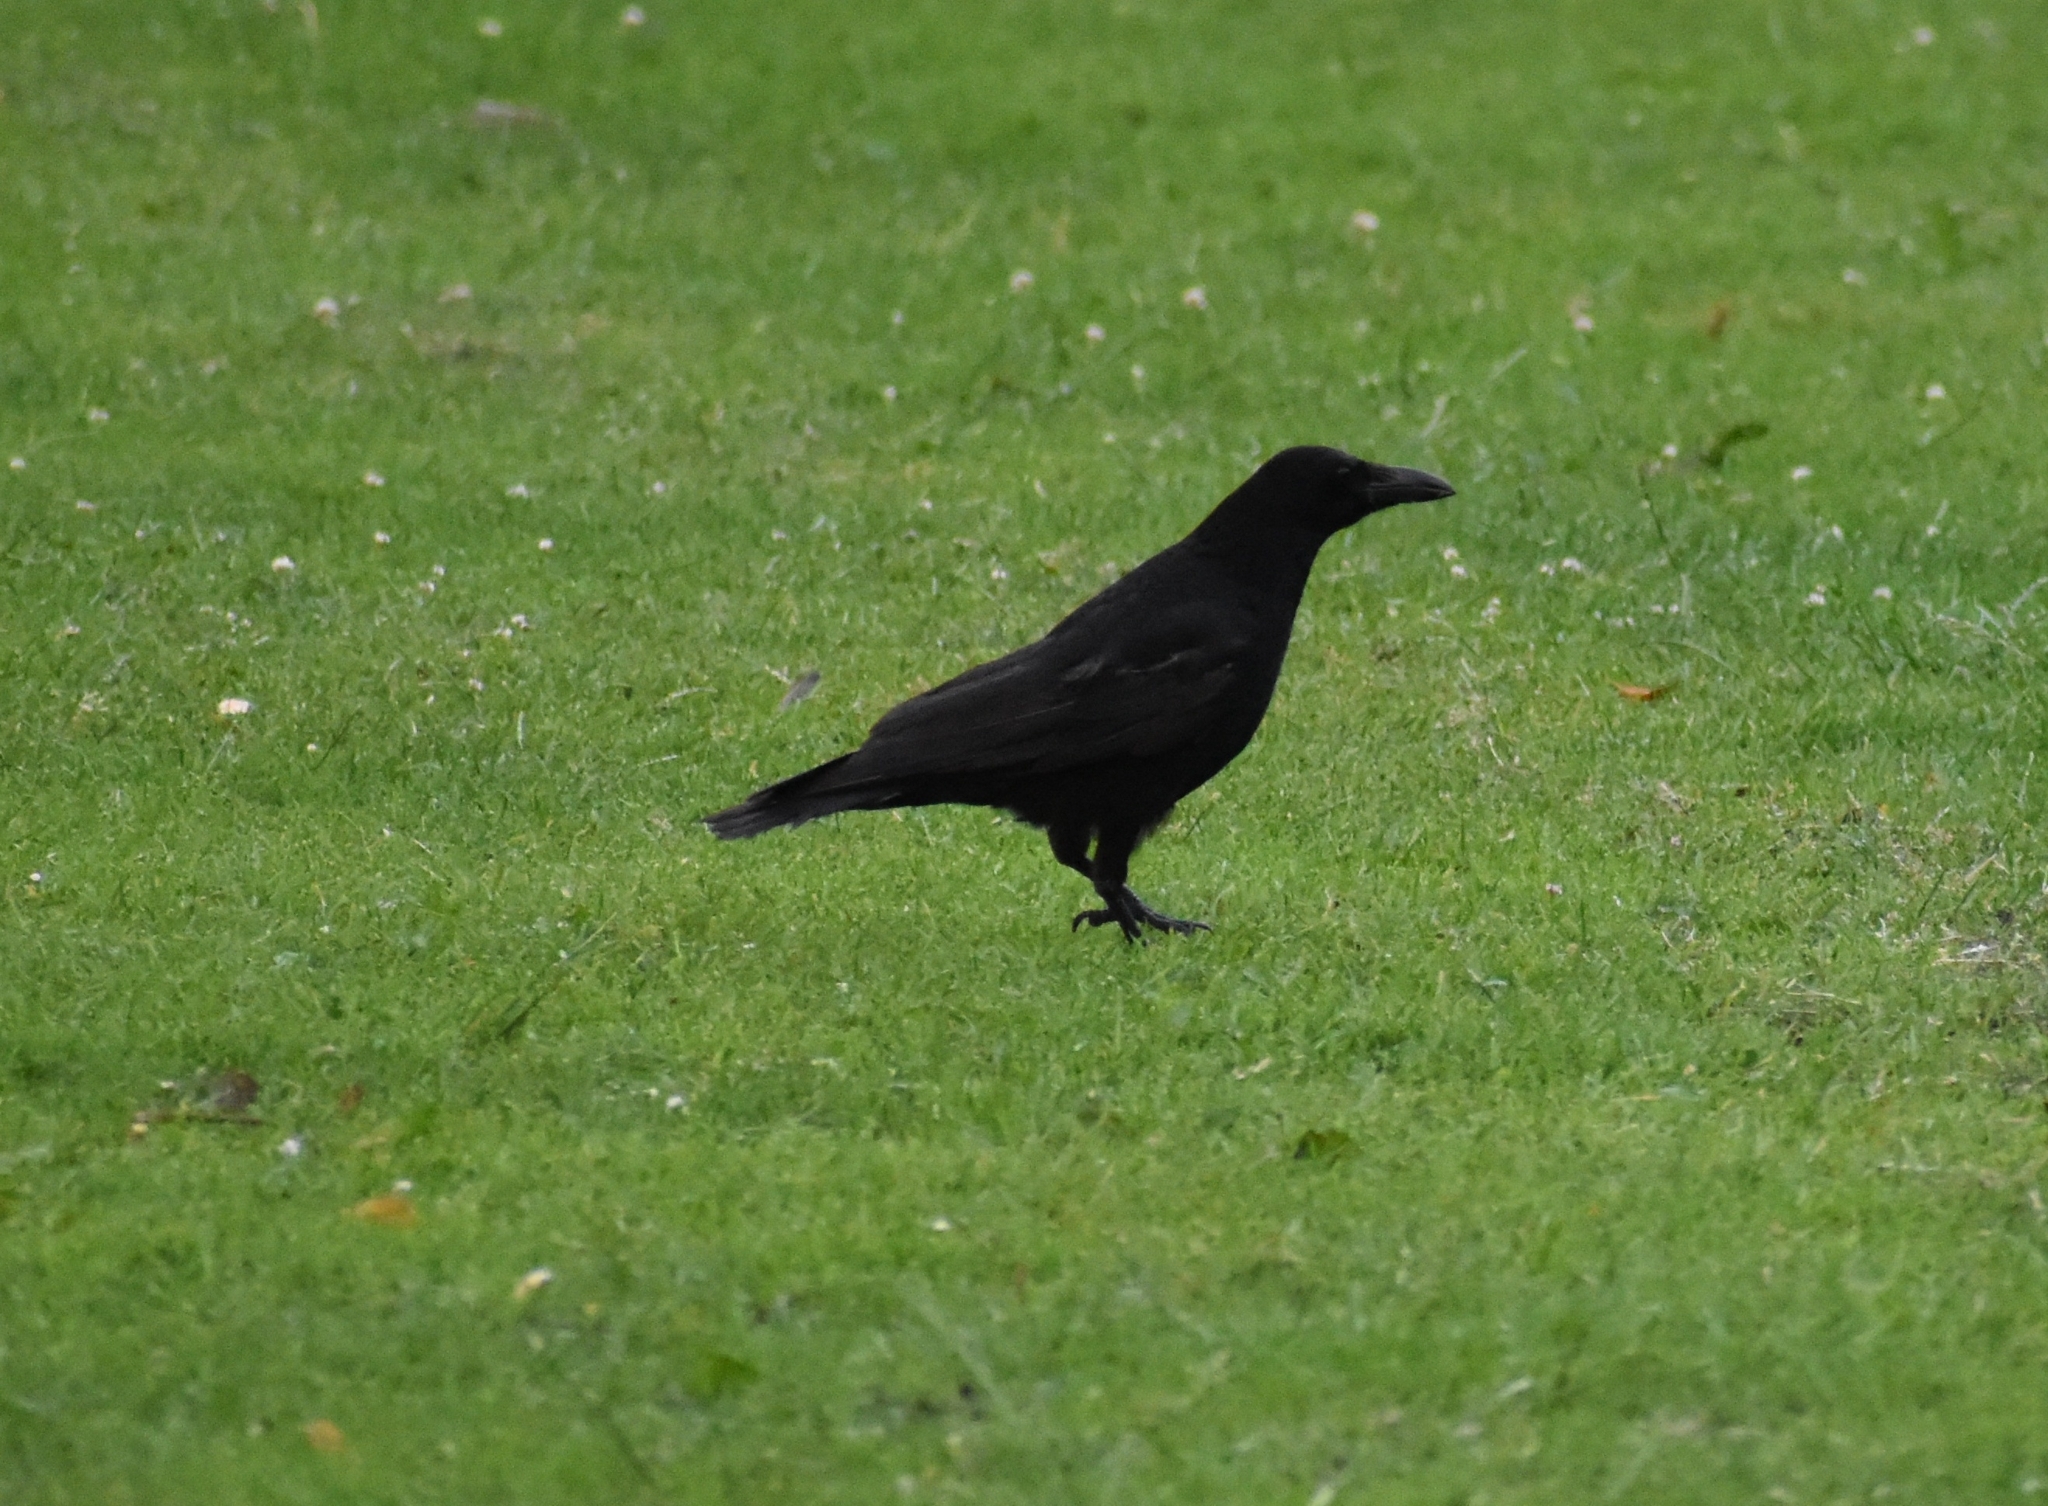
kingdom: Animalia
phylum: Chordata
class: Aves
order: Passeriformes
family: Corvidae
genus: Corvus
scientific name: Corvus corone
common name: Carrion crow
